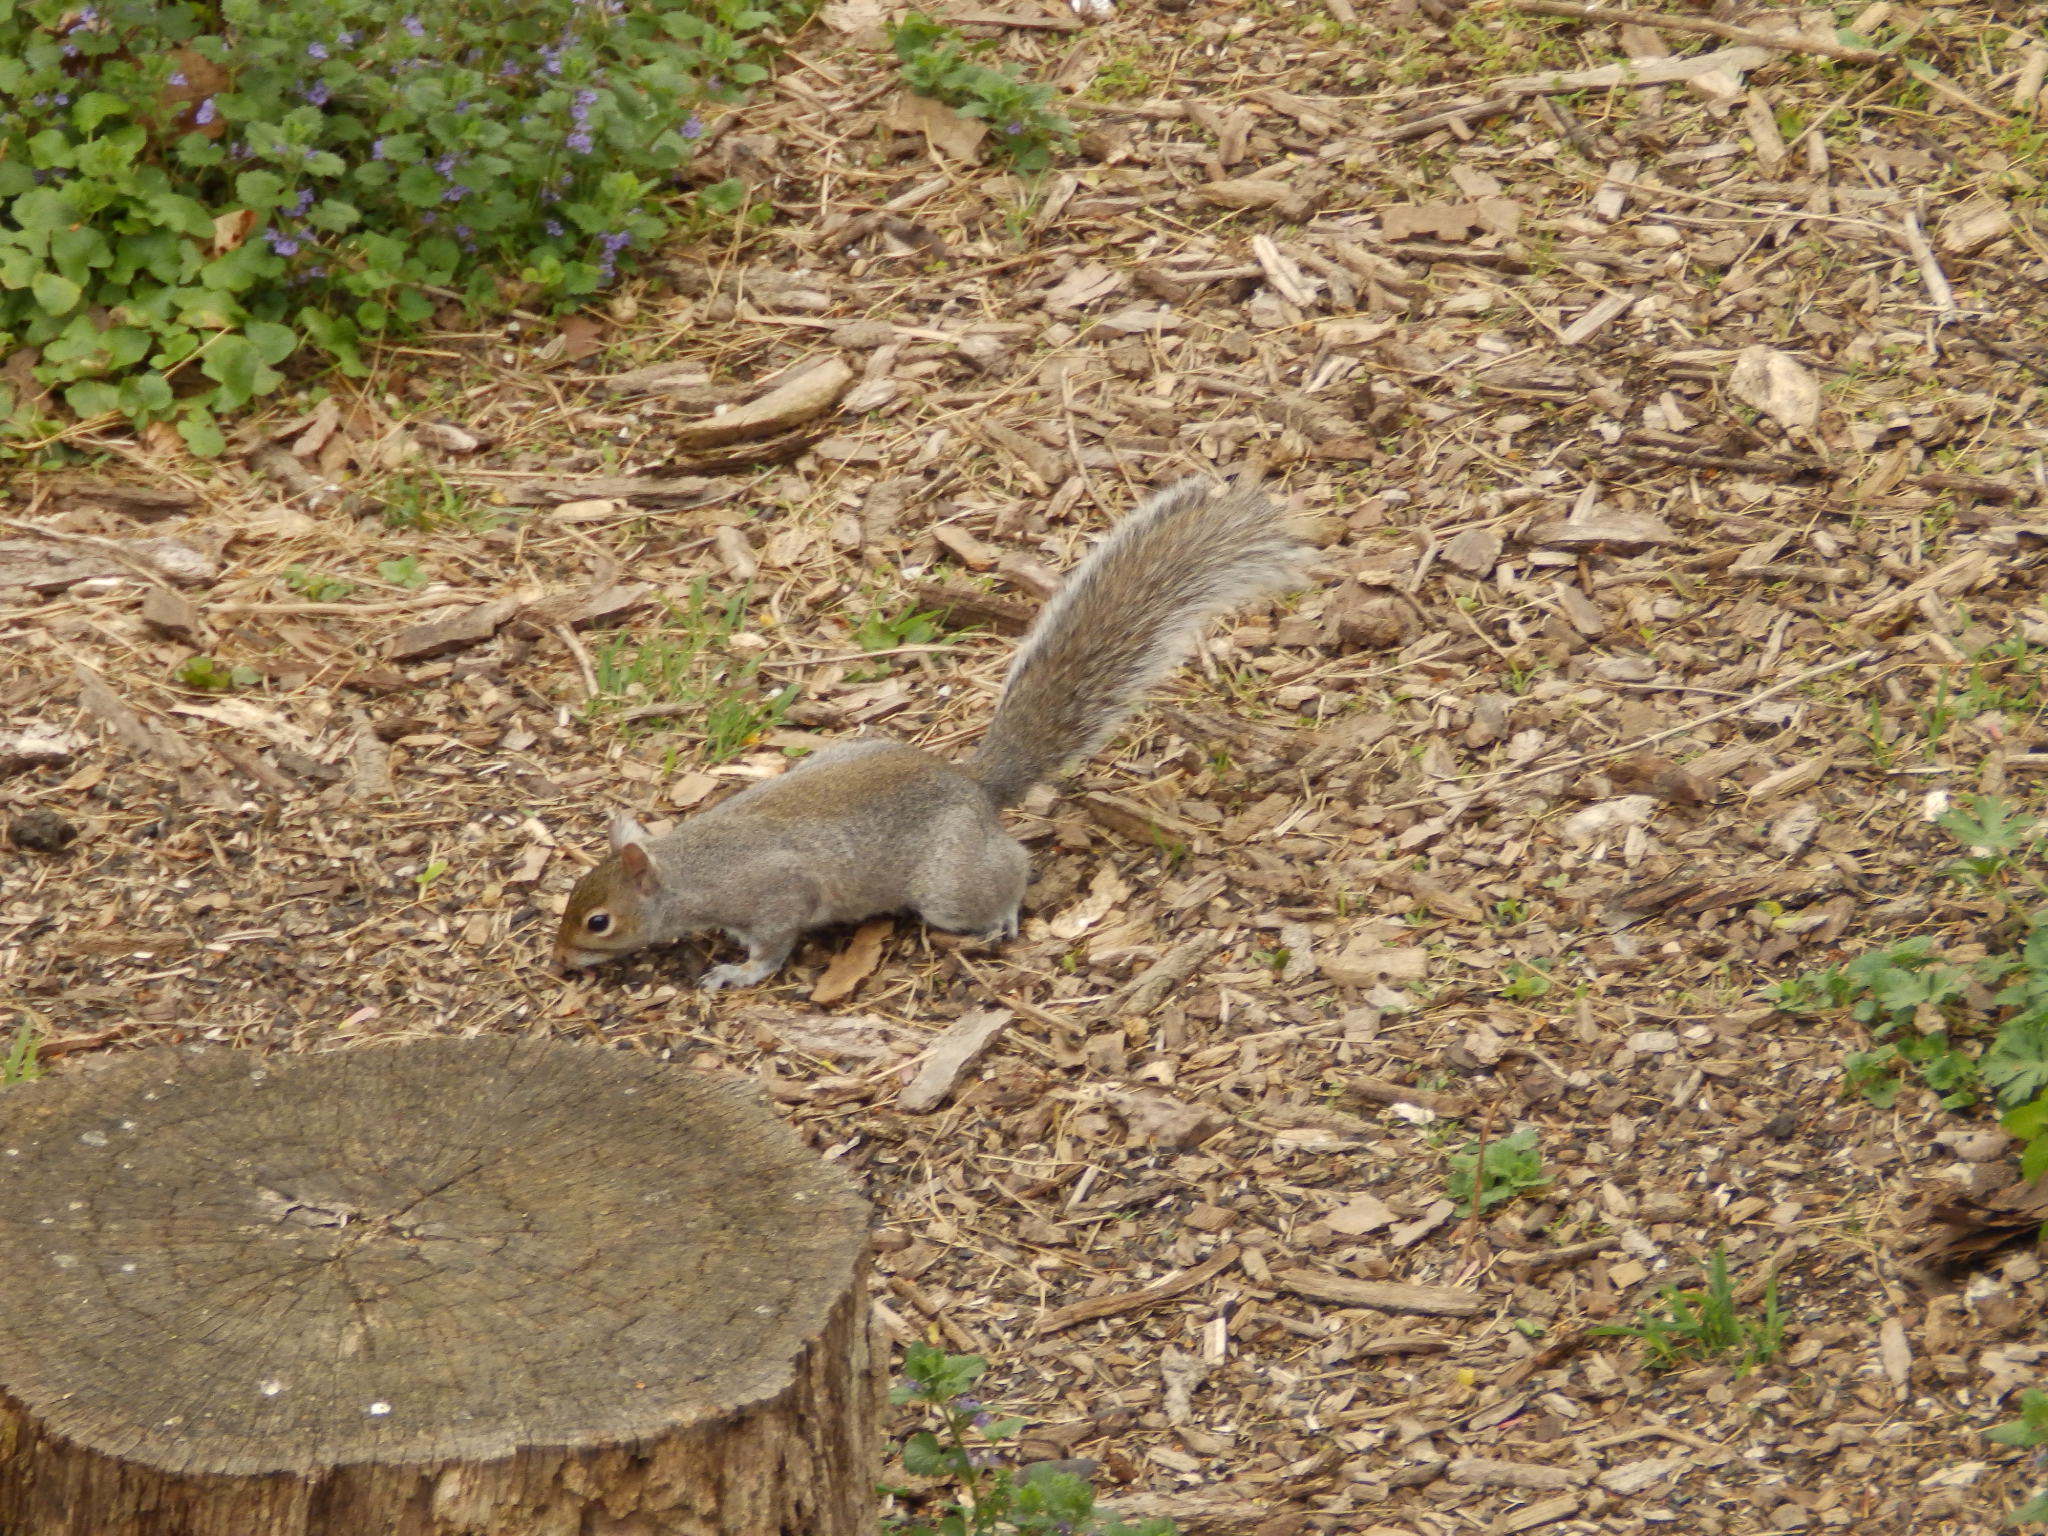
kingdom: Animalia
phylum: Chordata
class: Mammalia
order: Rodentia
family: Sciuridae
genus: Sciurus
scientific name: Sciurus carolinensis
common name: Eastern gray squirrel
